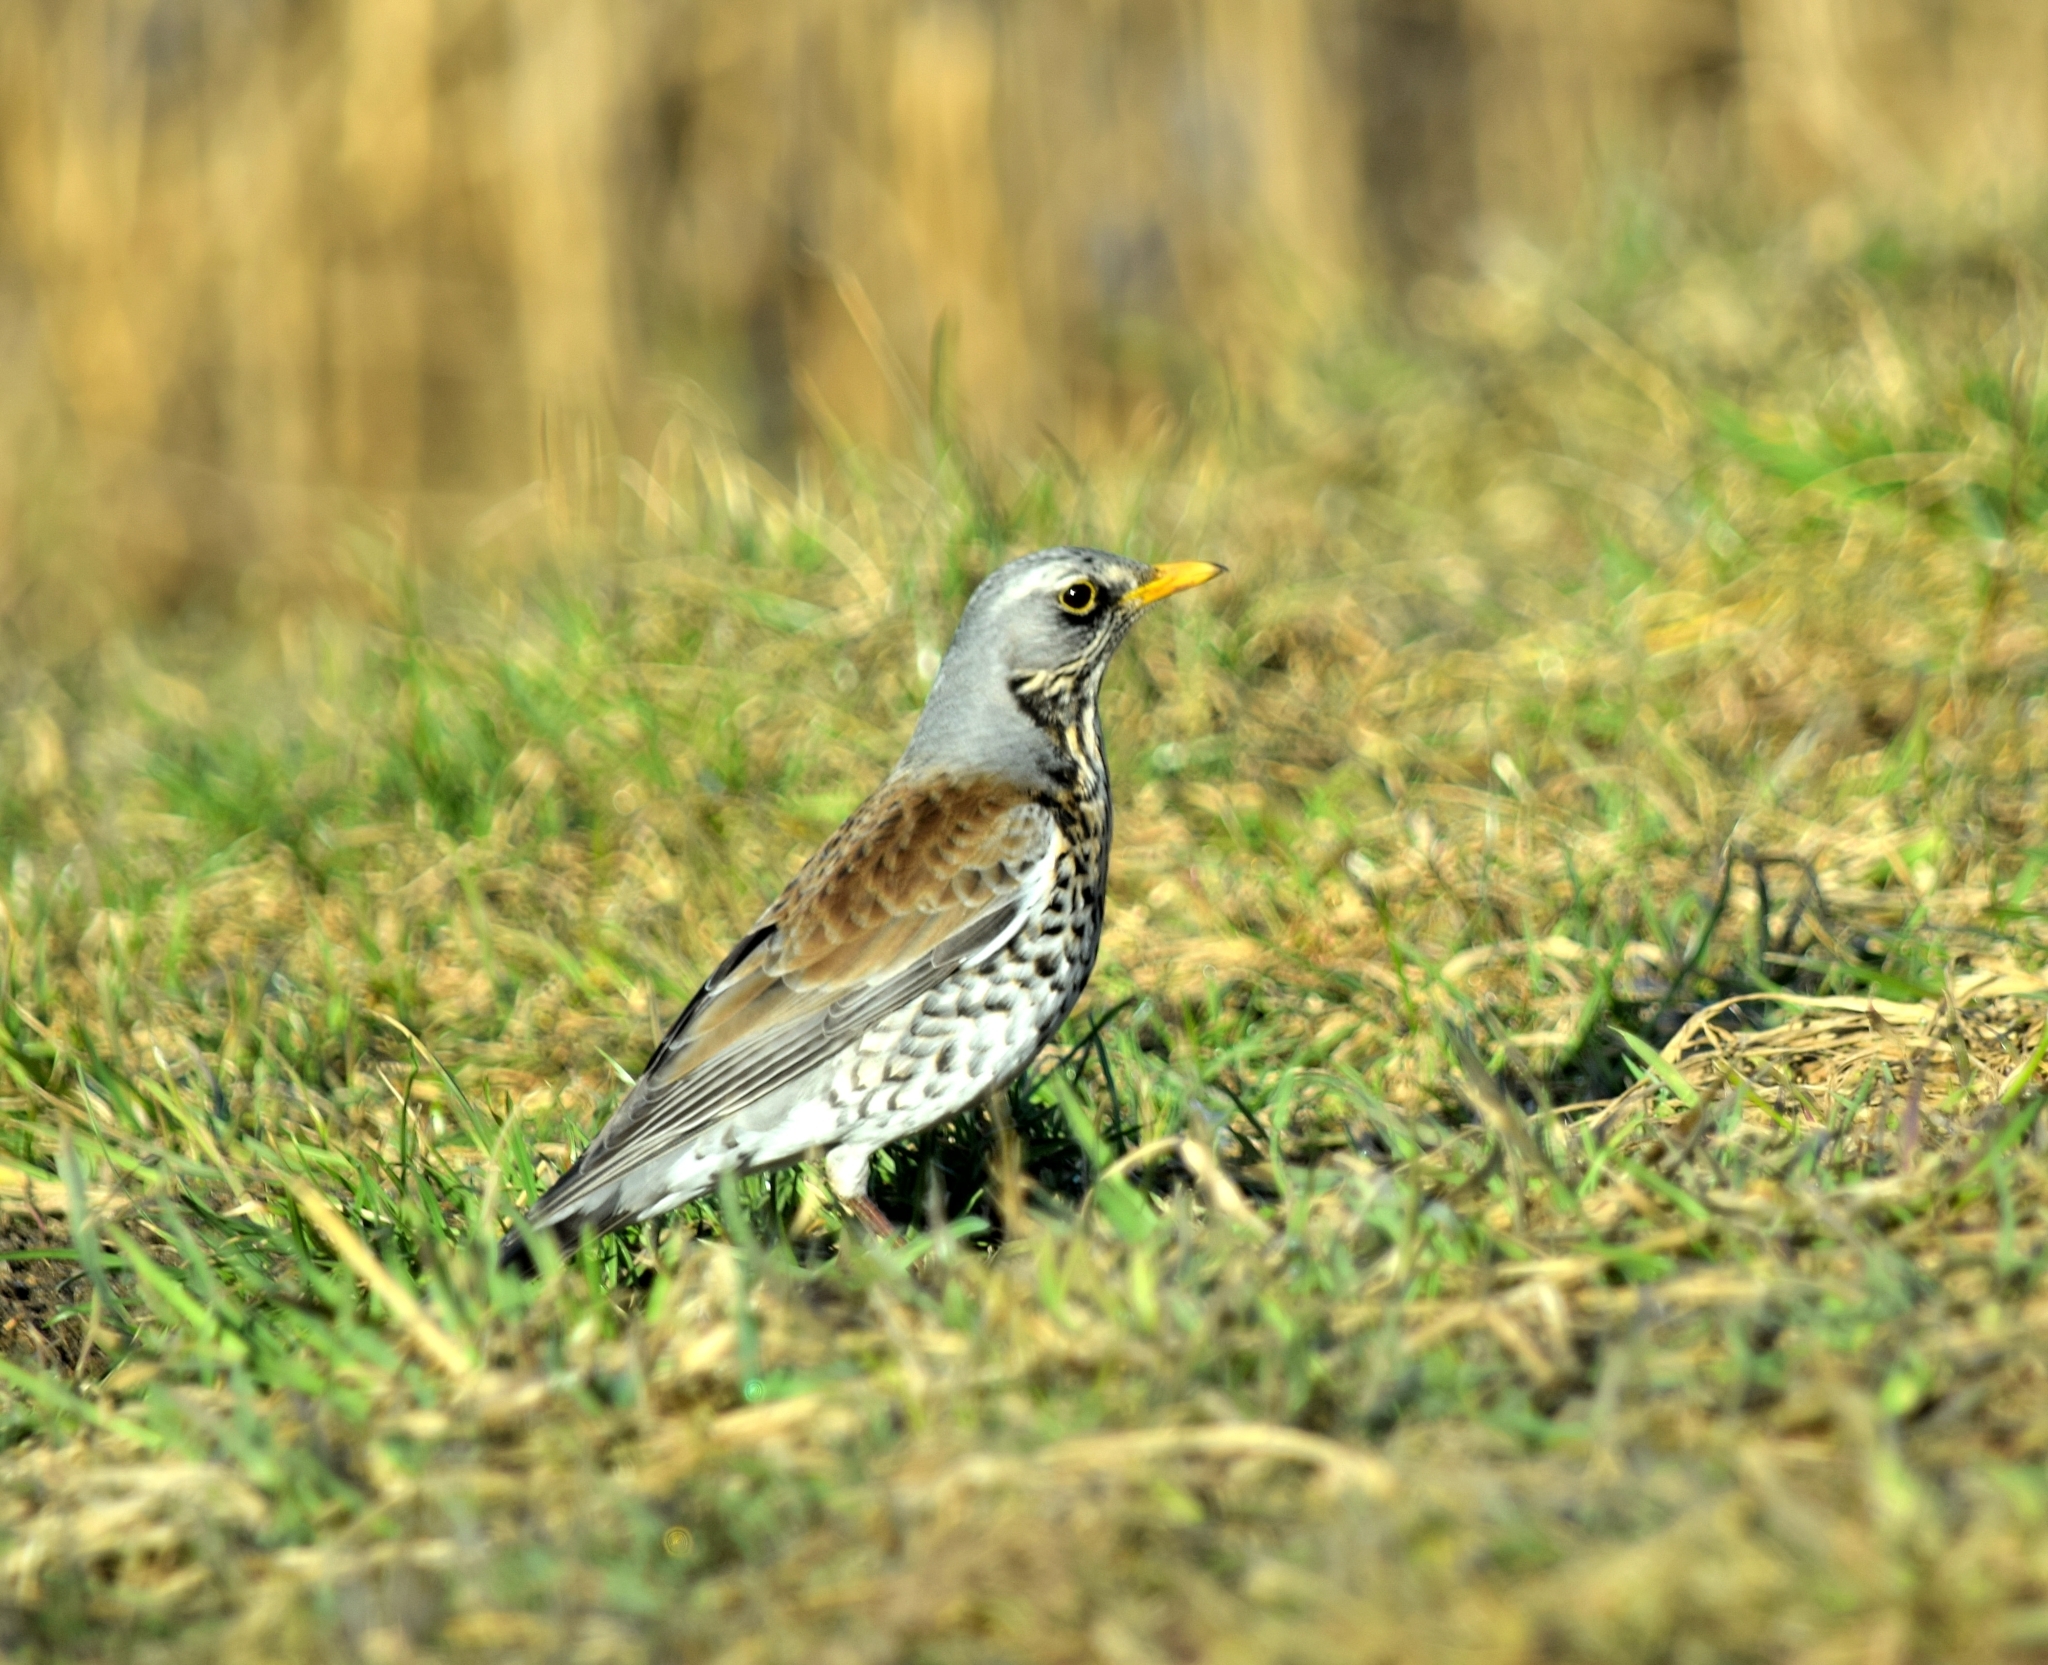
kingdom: Animalia
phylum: Chordata
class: Aves
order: Passeriformes
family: Turdidae
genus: Turdus
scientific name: Turdus pilaris
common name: Fieldfare
